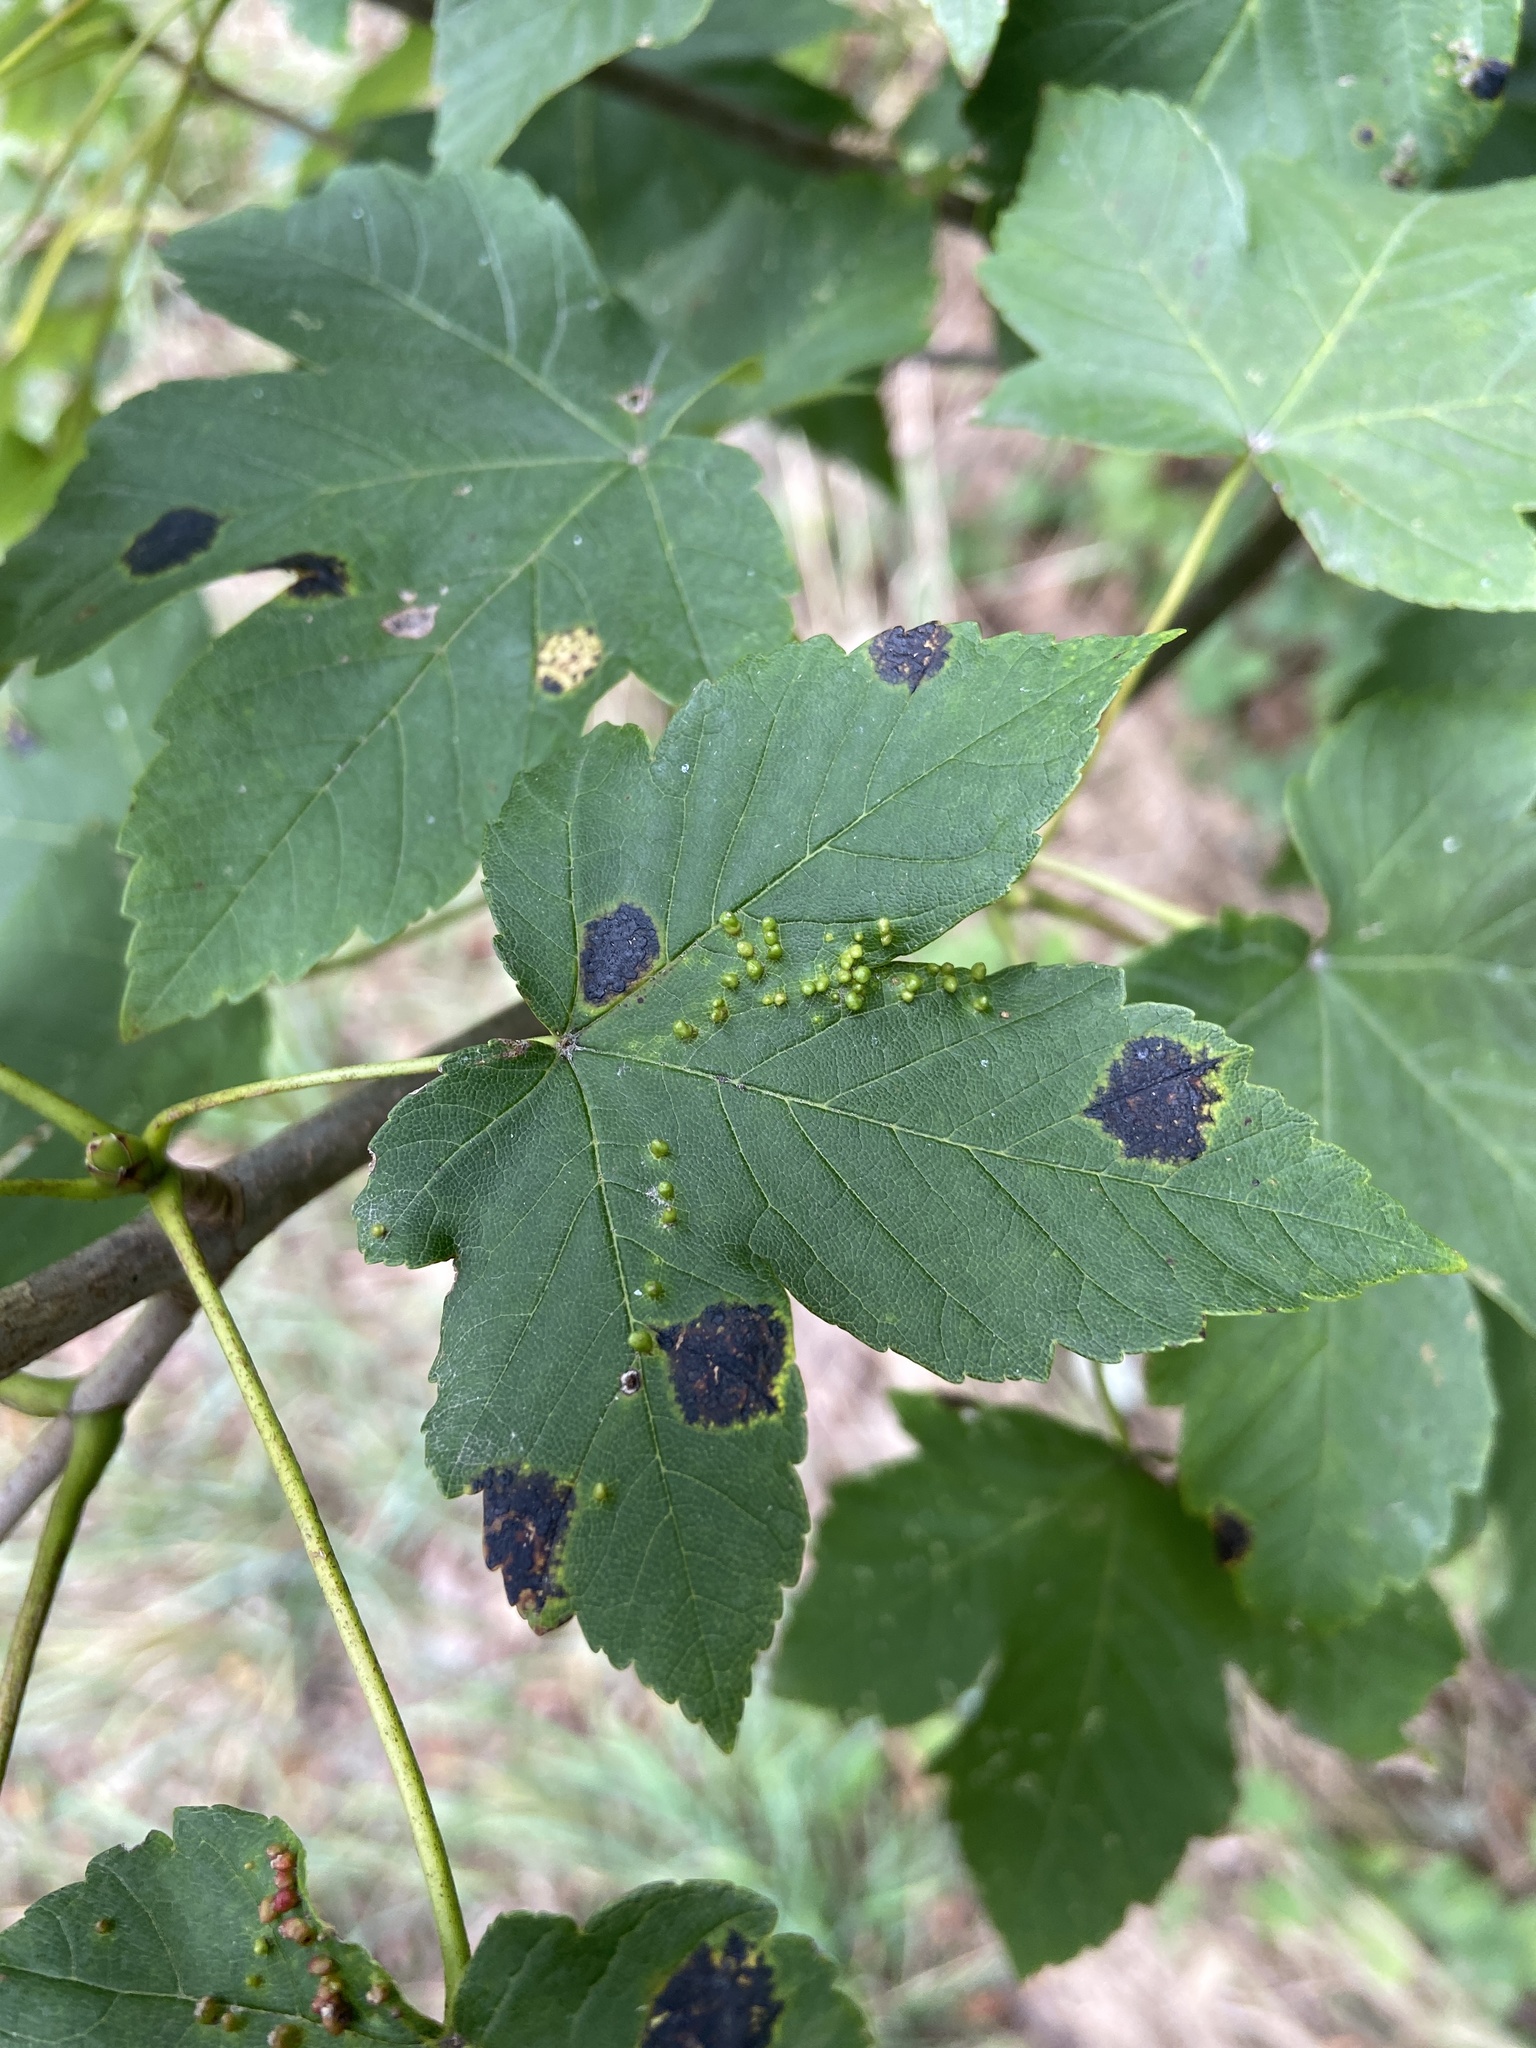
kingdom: Fungi
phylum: Ascomycota
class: Leotiomycetes
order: Rhytismatales
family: Rhytismataceae
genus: Rhytisma
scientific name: Rhytisma acerinum
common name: European tar spot
